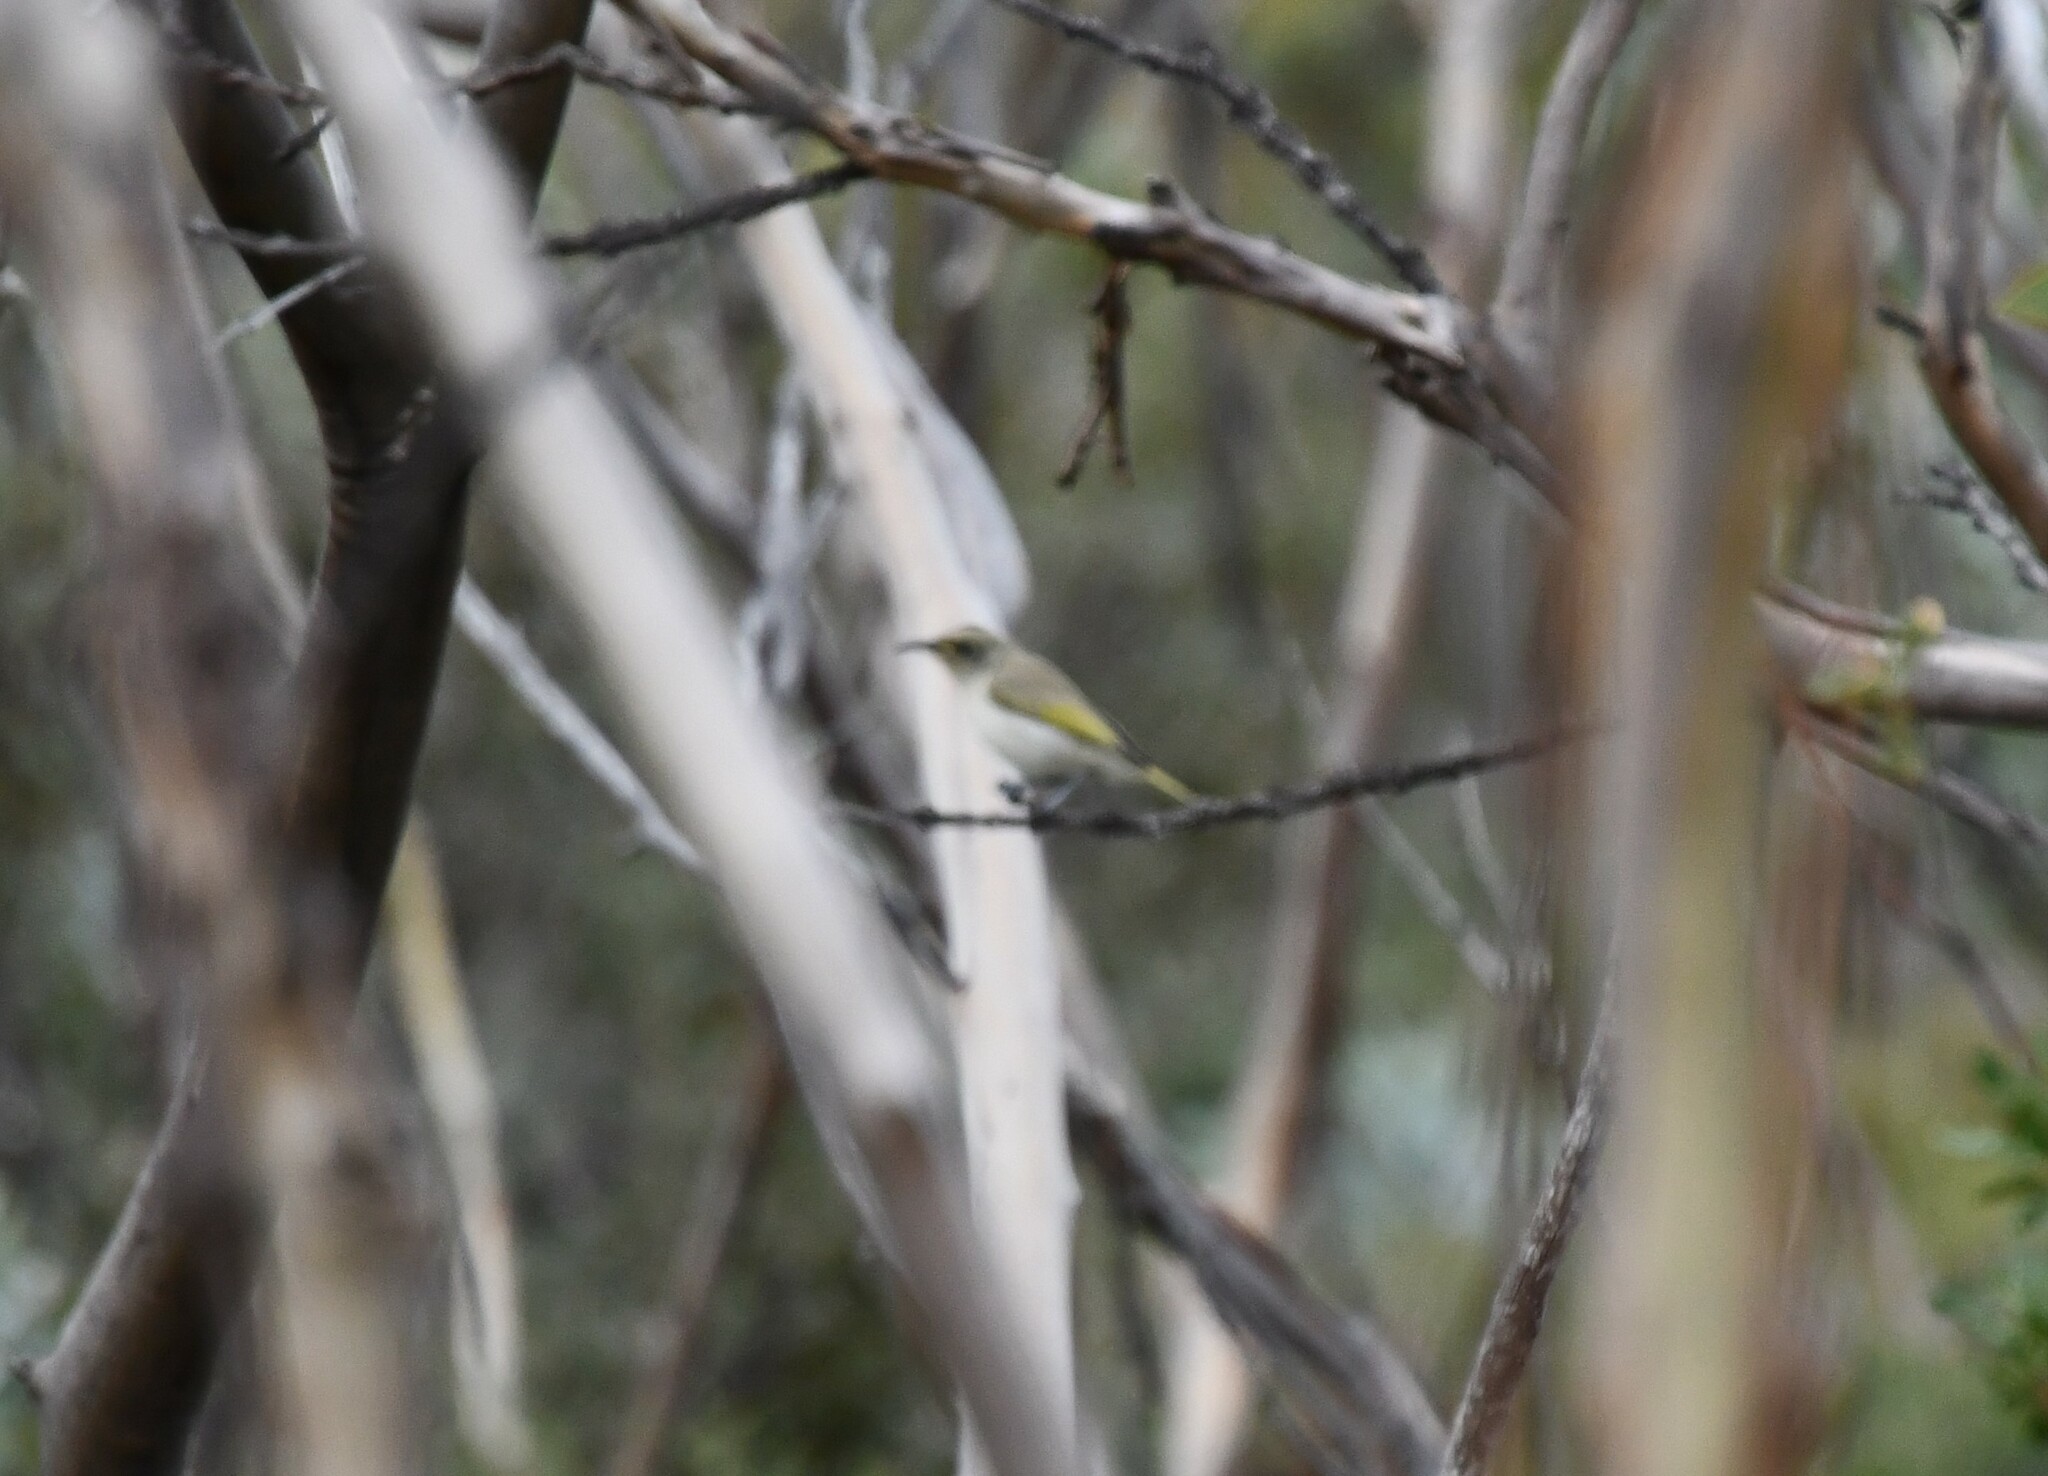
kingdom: Animalia
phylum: Chordata
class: Aves
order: Passeriformes
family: Meliphagidae
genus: Lichmera
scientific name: Lichmera indistincta
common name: Brown honeyeater
